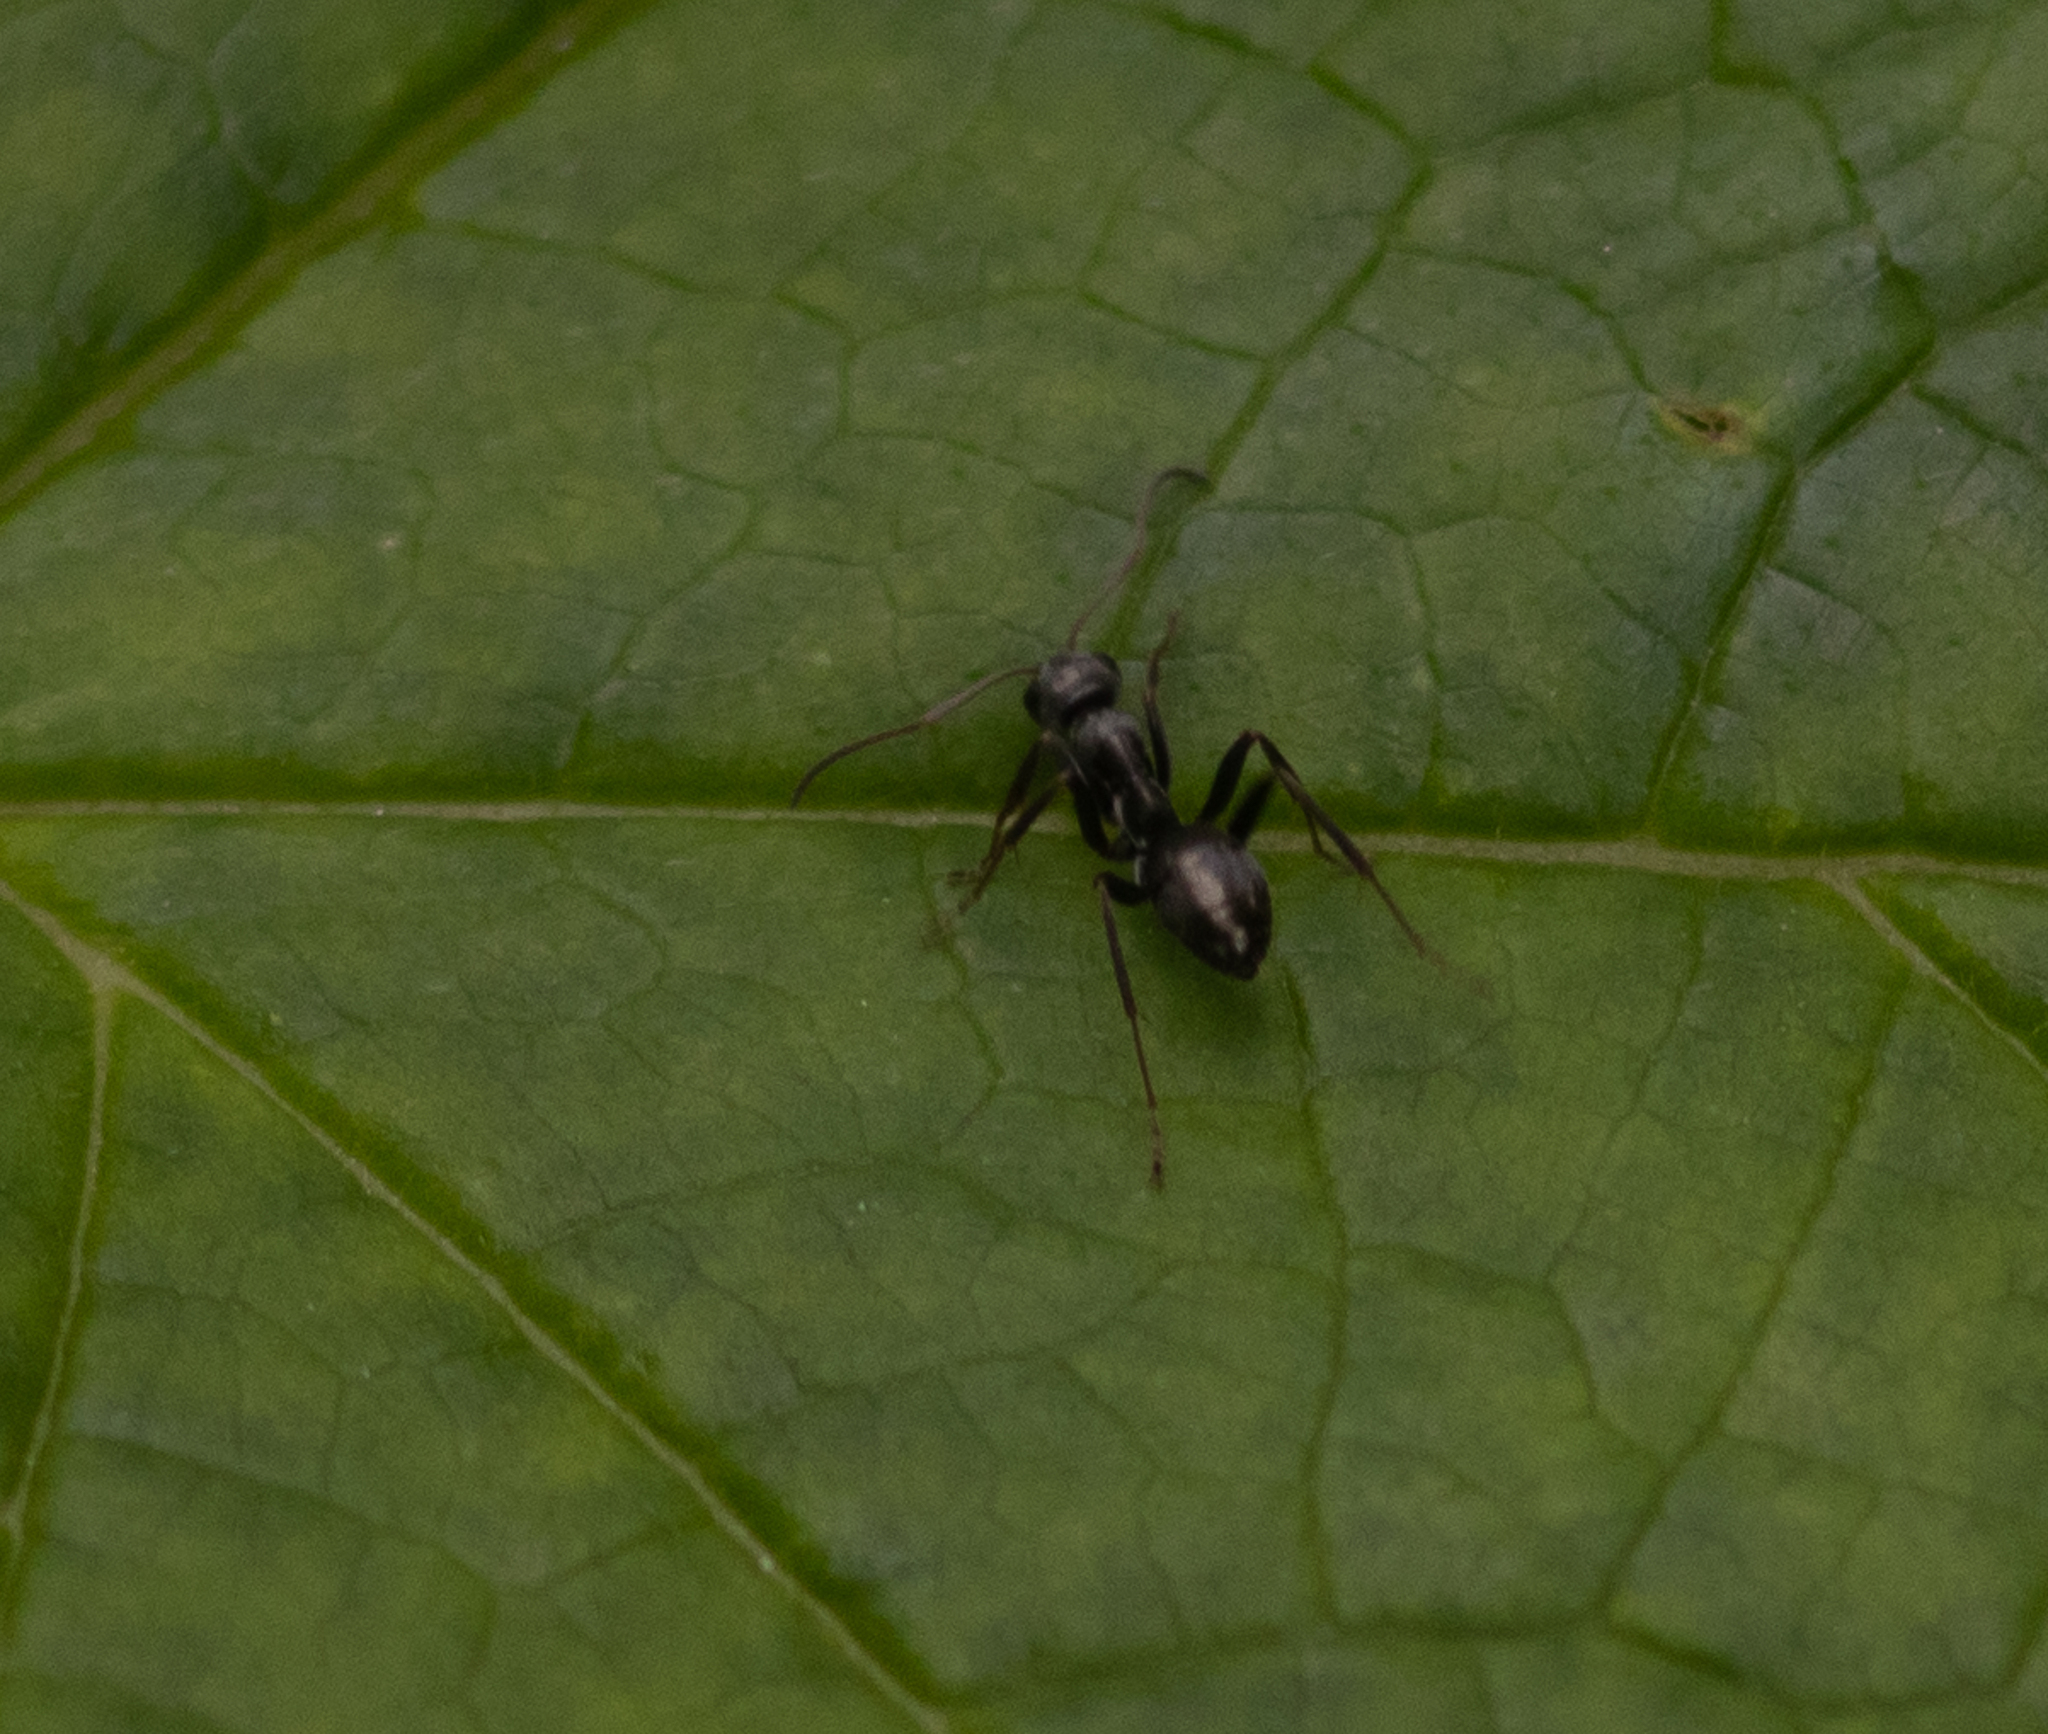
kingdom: Animalia
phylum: Arthropoda
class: Insecta
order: Hymenoptera
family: Formicidae
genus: Formica
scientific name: Formica
